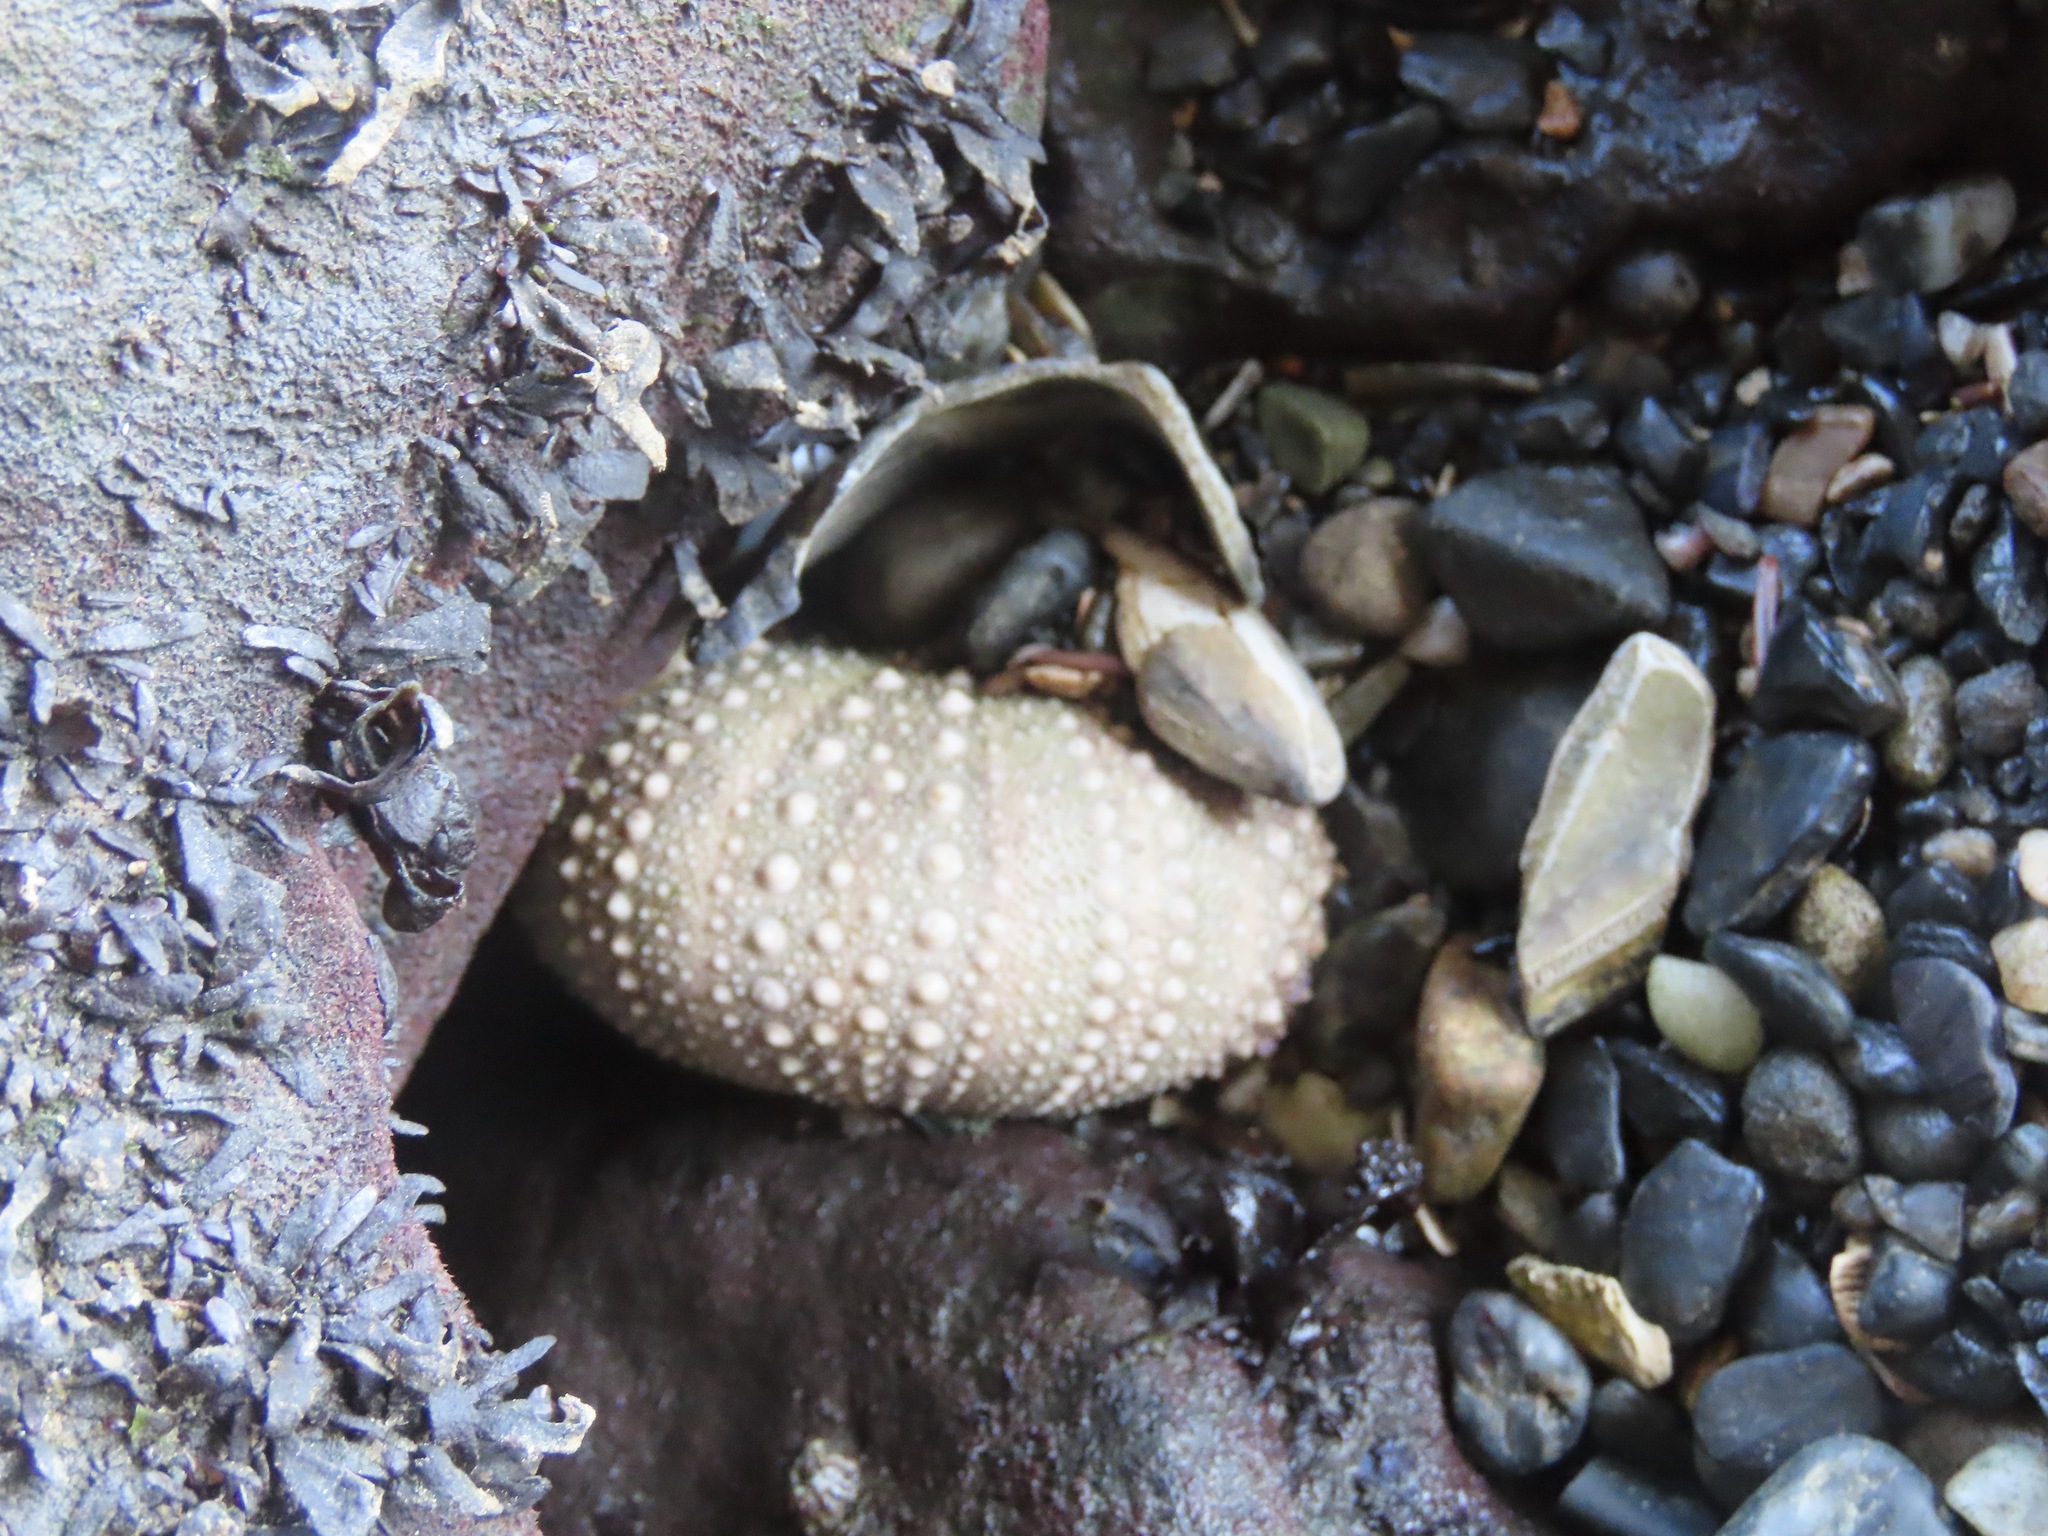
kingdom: Animalia
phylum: Echinodermata
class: Echinoidea
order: Camarodonta
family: Strongylocentrotidae
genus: Strongylocentrotus
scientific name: Strongylocentrotus purpuratus
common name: Purple sea urchin
